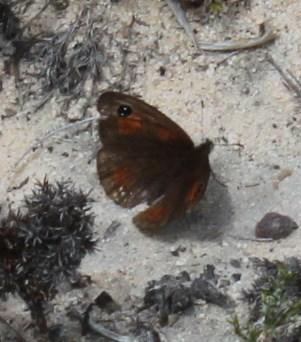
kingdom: Animalia
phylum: Arthropoda
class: Insecta
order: Lepidoptera
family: Nymphalidae
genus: Pseudonympha
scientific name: Pseudonympha trimenii
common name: Trimen’s brown
